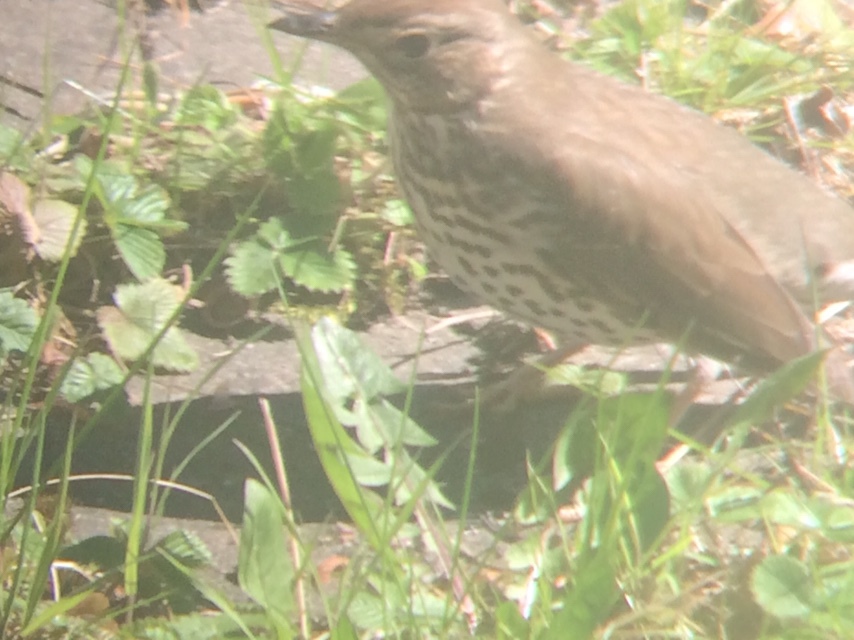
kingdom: Animalia
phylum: Chordata
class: Aves
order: Passeriformes
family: Turdidae
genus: Turdus
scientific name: Turdus philomelos
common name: Song thrush
